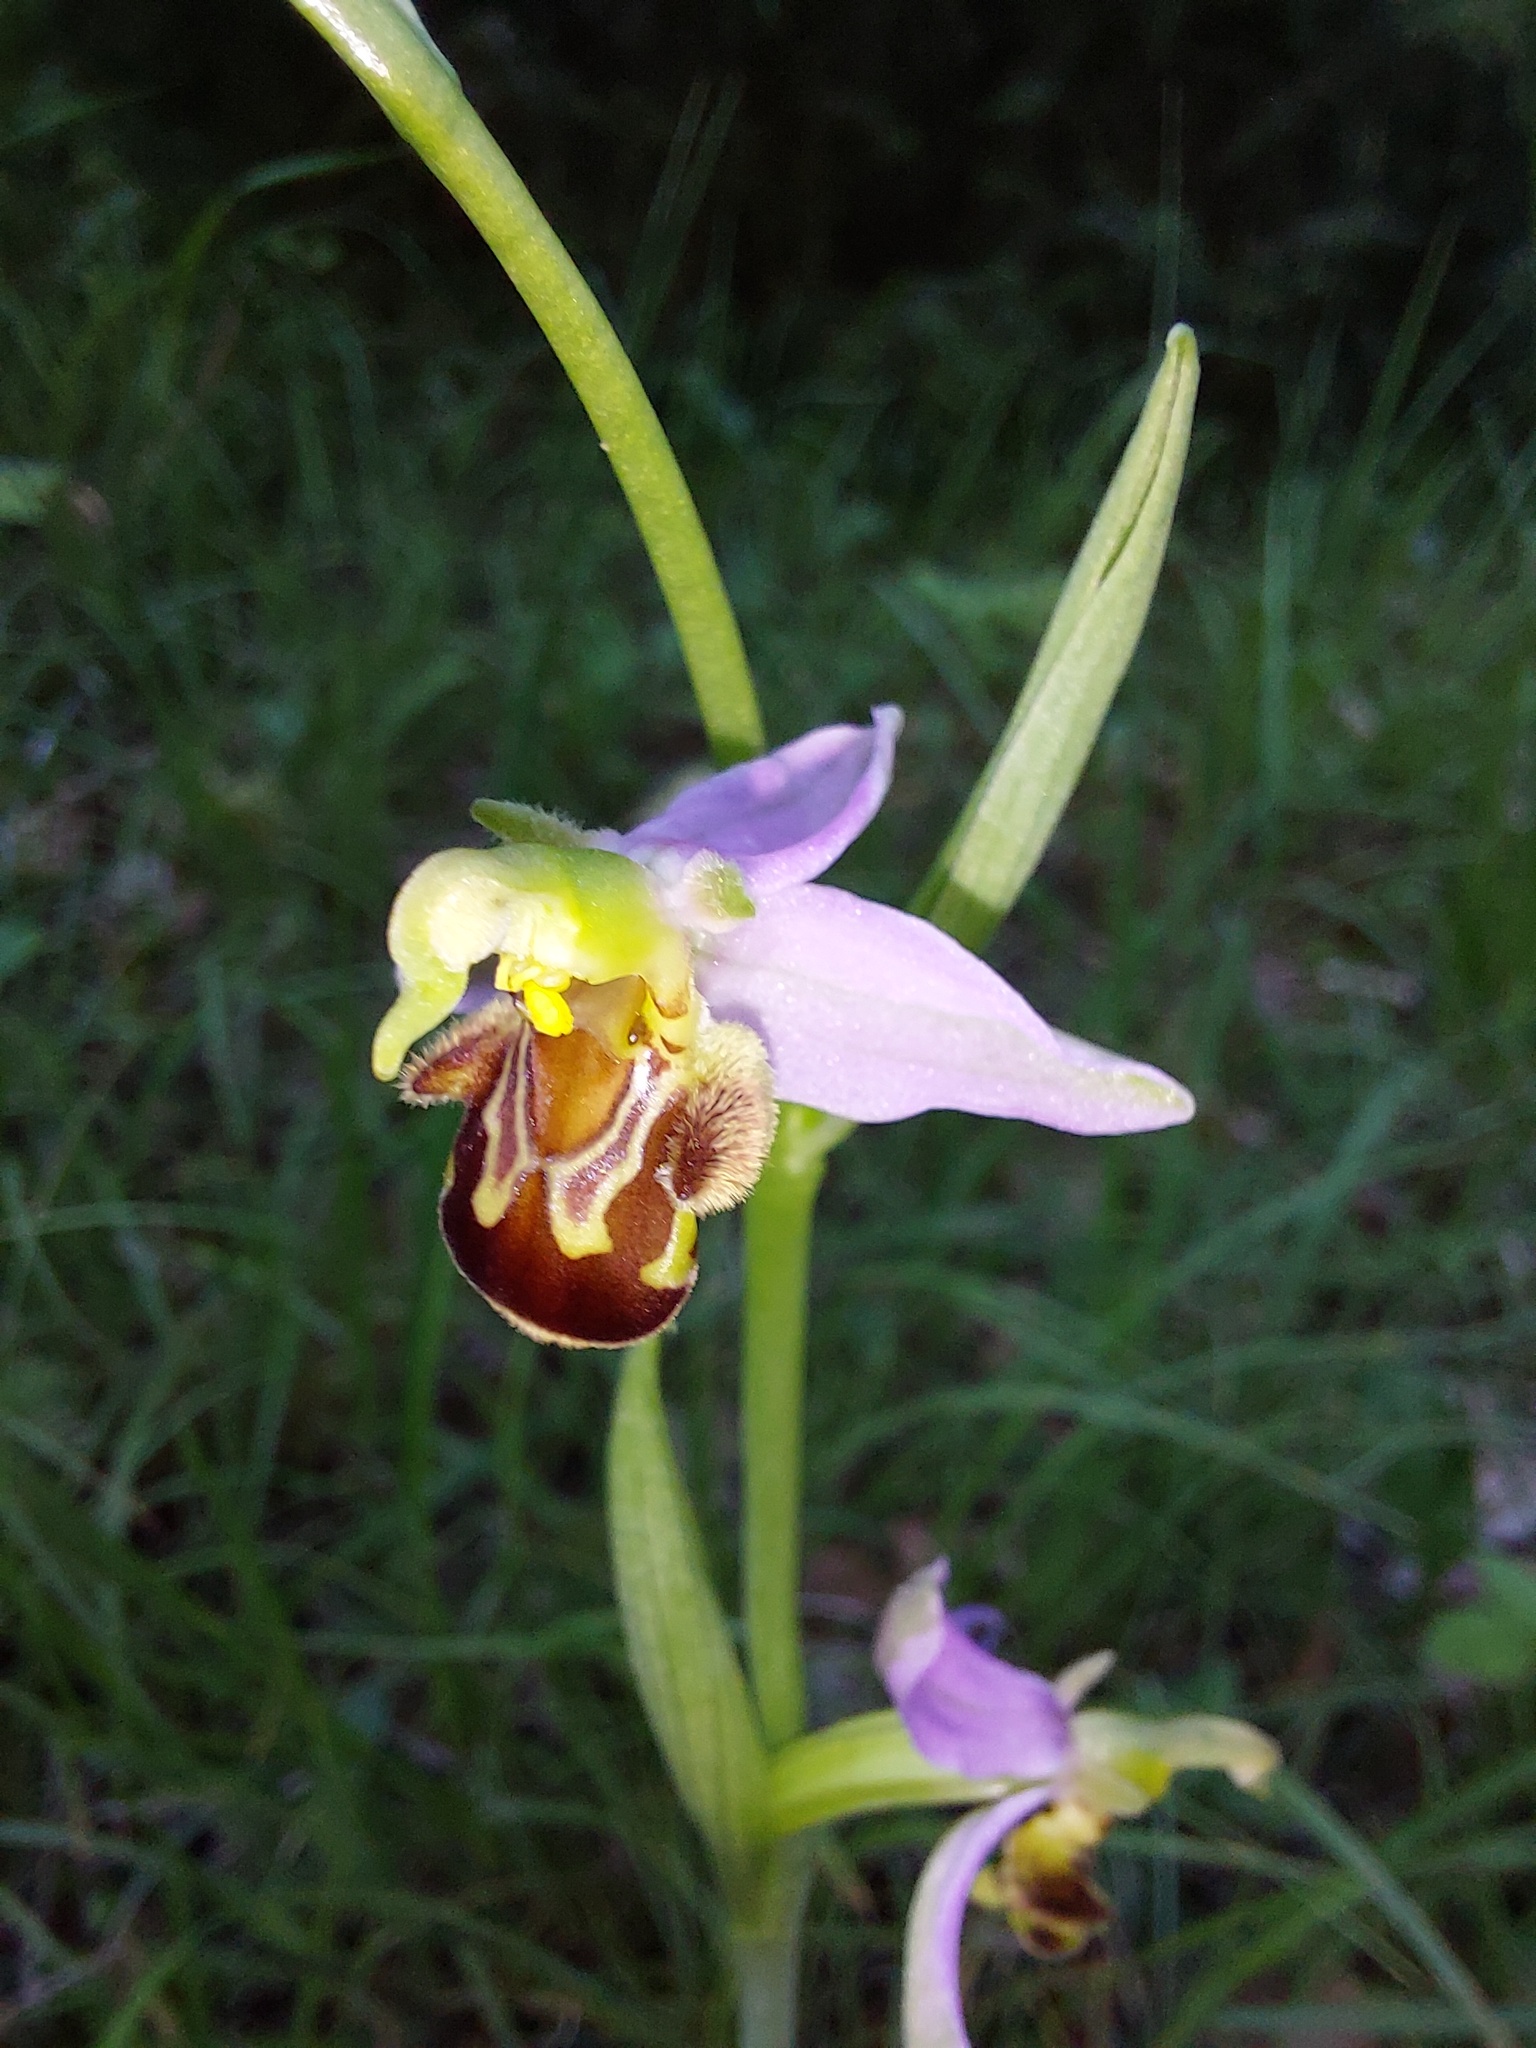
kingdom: Plantae
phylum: Tracheophyta
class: Liliopsida
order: Asparagales
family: Orchidaceae
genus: Ophrys
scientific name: Ophrys apifera
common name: Bee orchid
